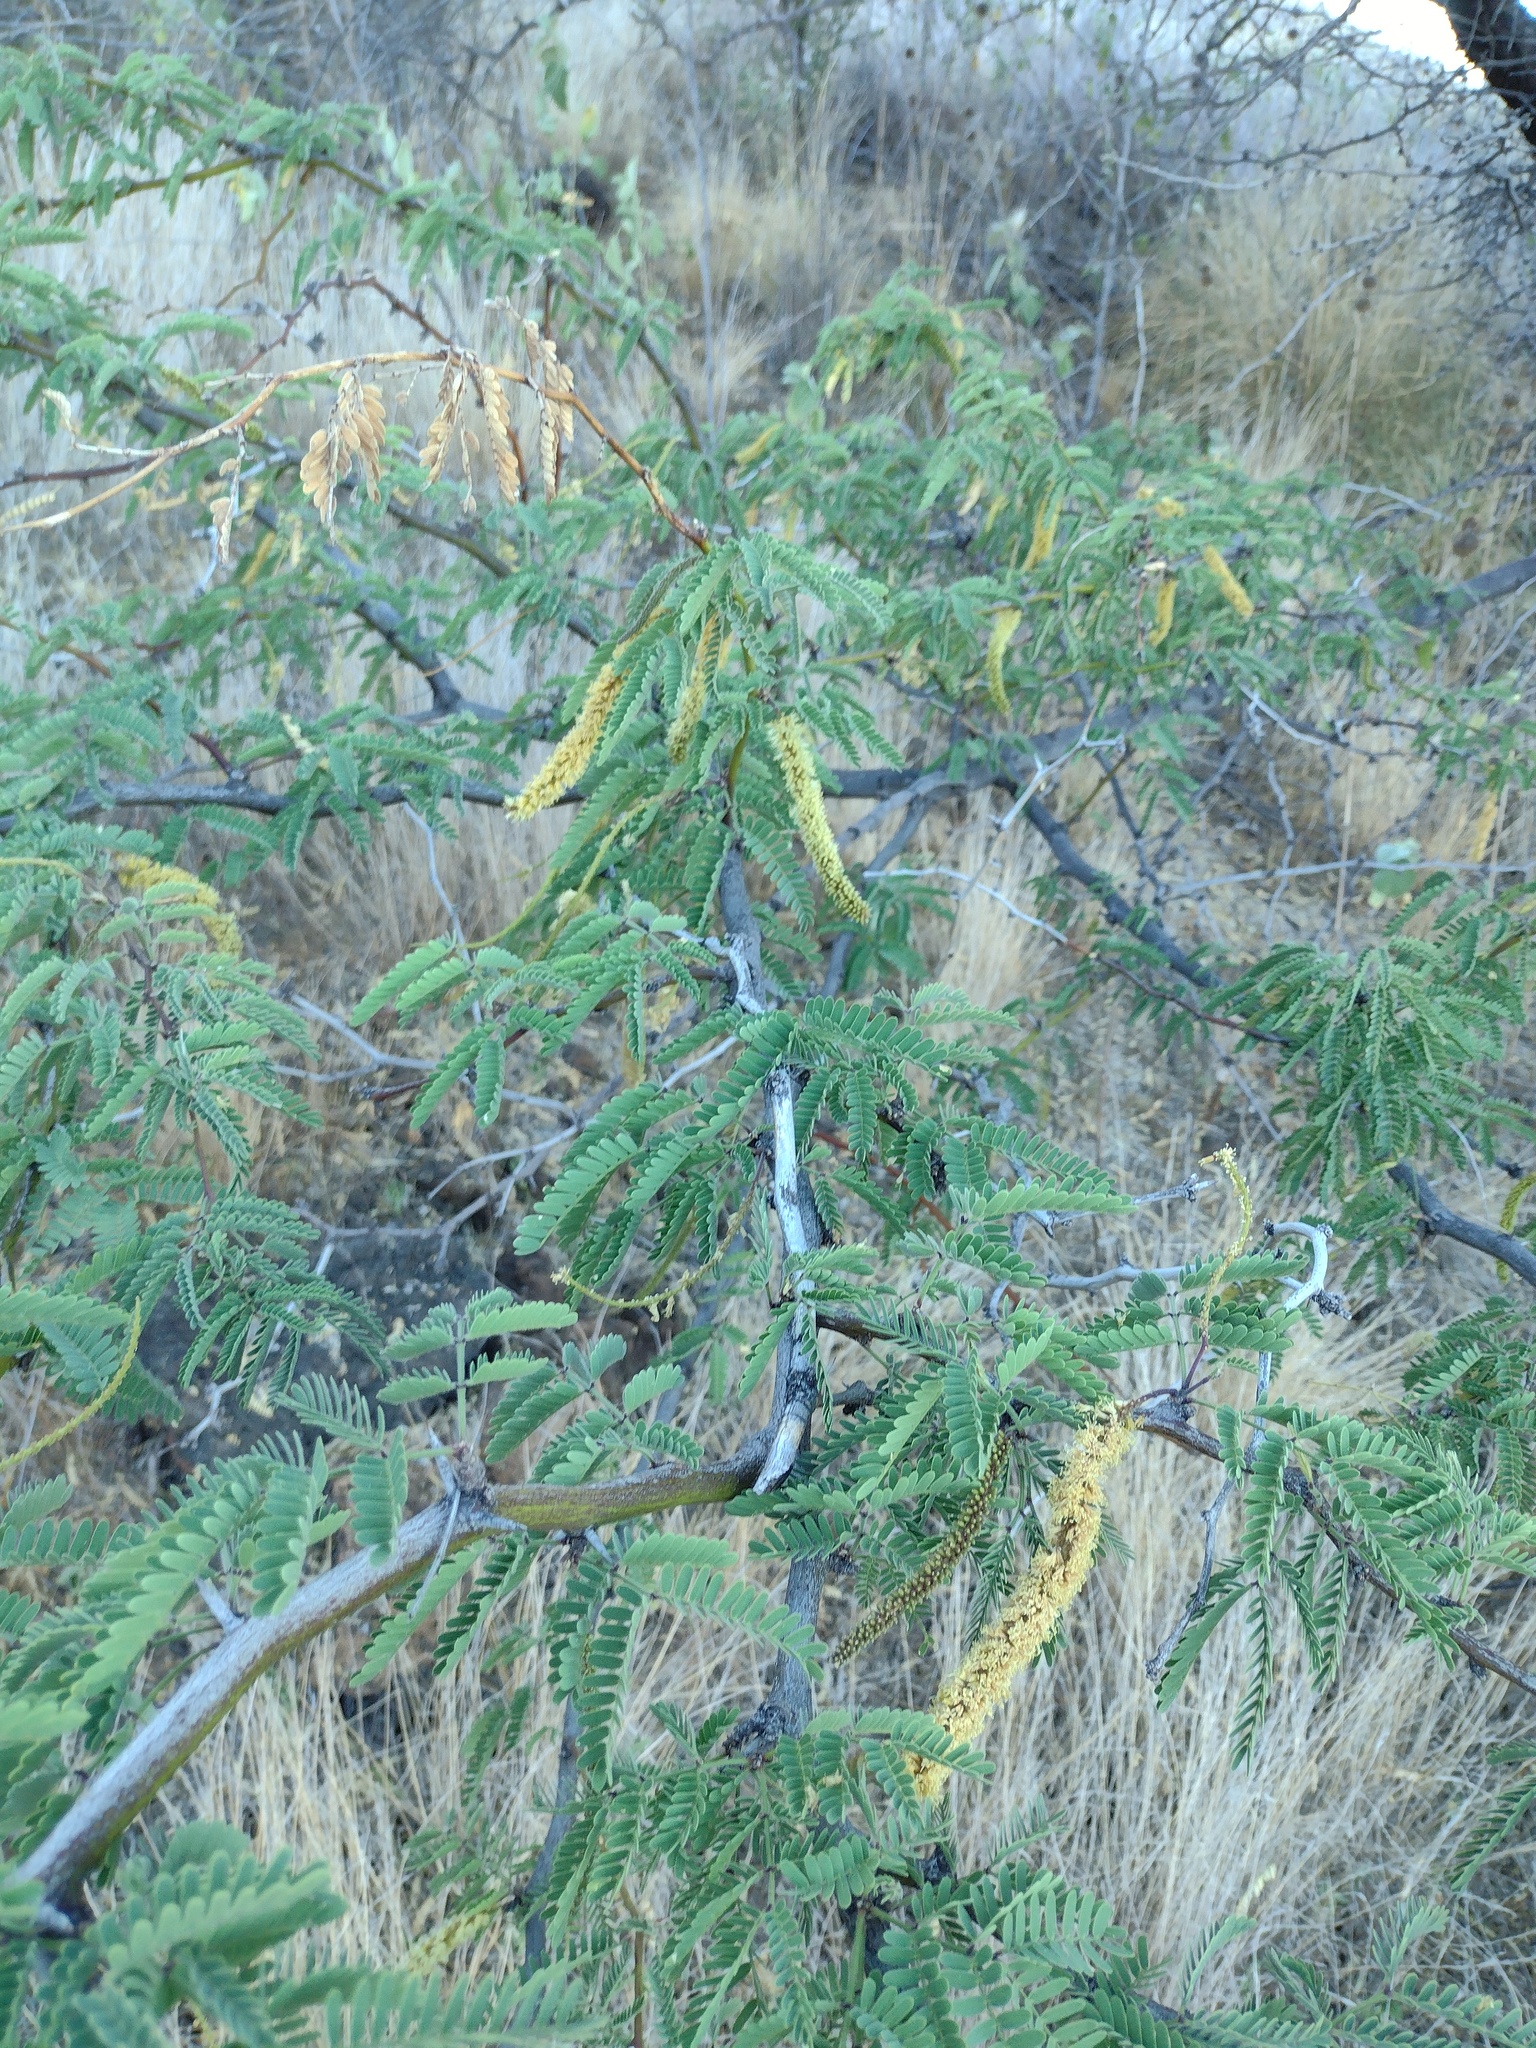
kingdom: Plantae
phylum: Tracheophyta
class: Magnoliopsida
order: Fabales
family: Fabaceae
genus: Prosopis
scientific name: Prosopis pallida
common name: Mesquite
